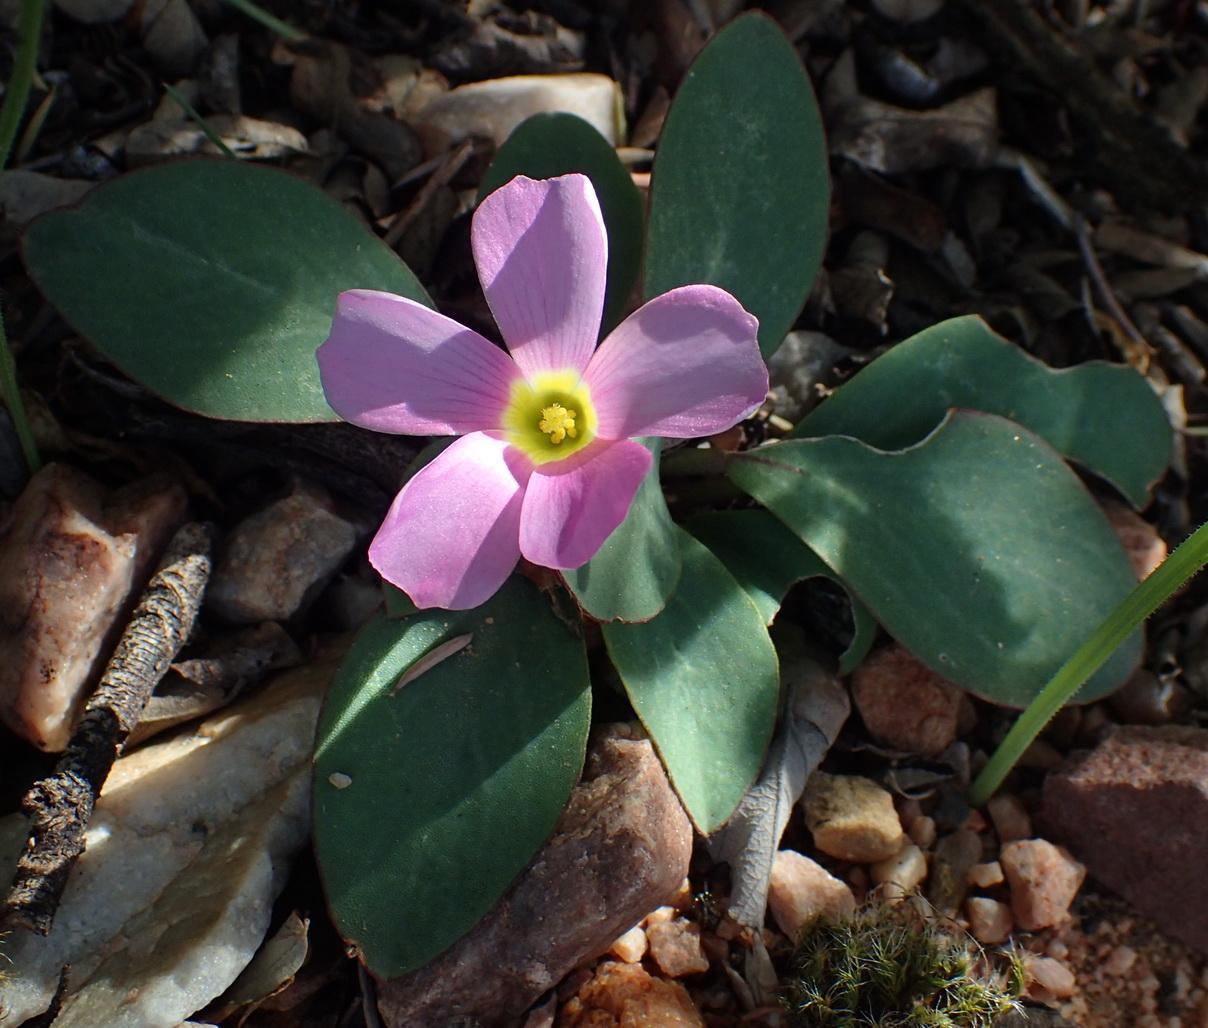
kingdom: Plantae
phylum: Tracheophyta
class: Magnoliopsida
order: Oxalidales
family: Oxalidaceae
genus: Oxalis
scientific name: Oxalis nortieri
